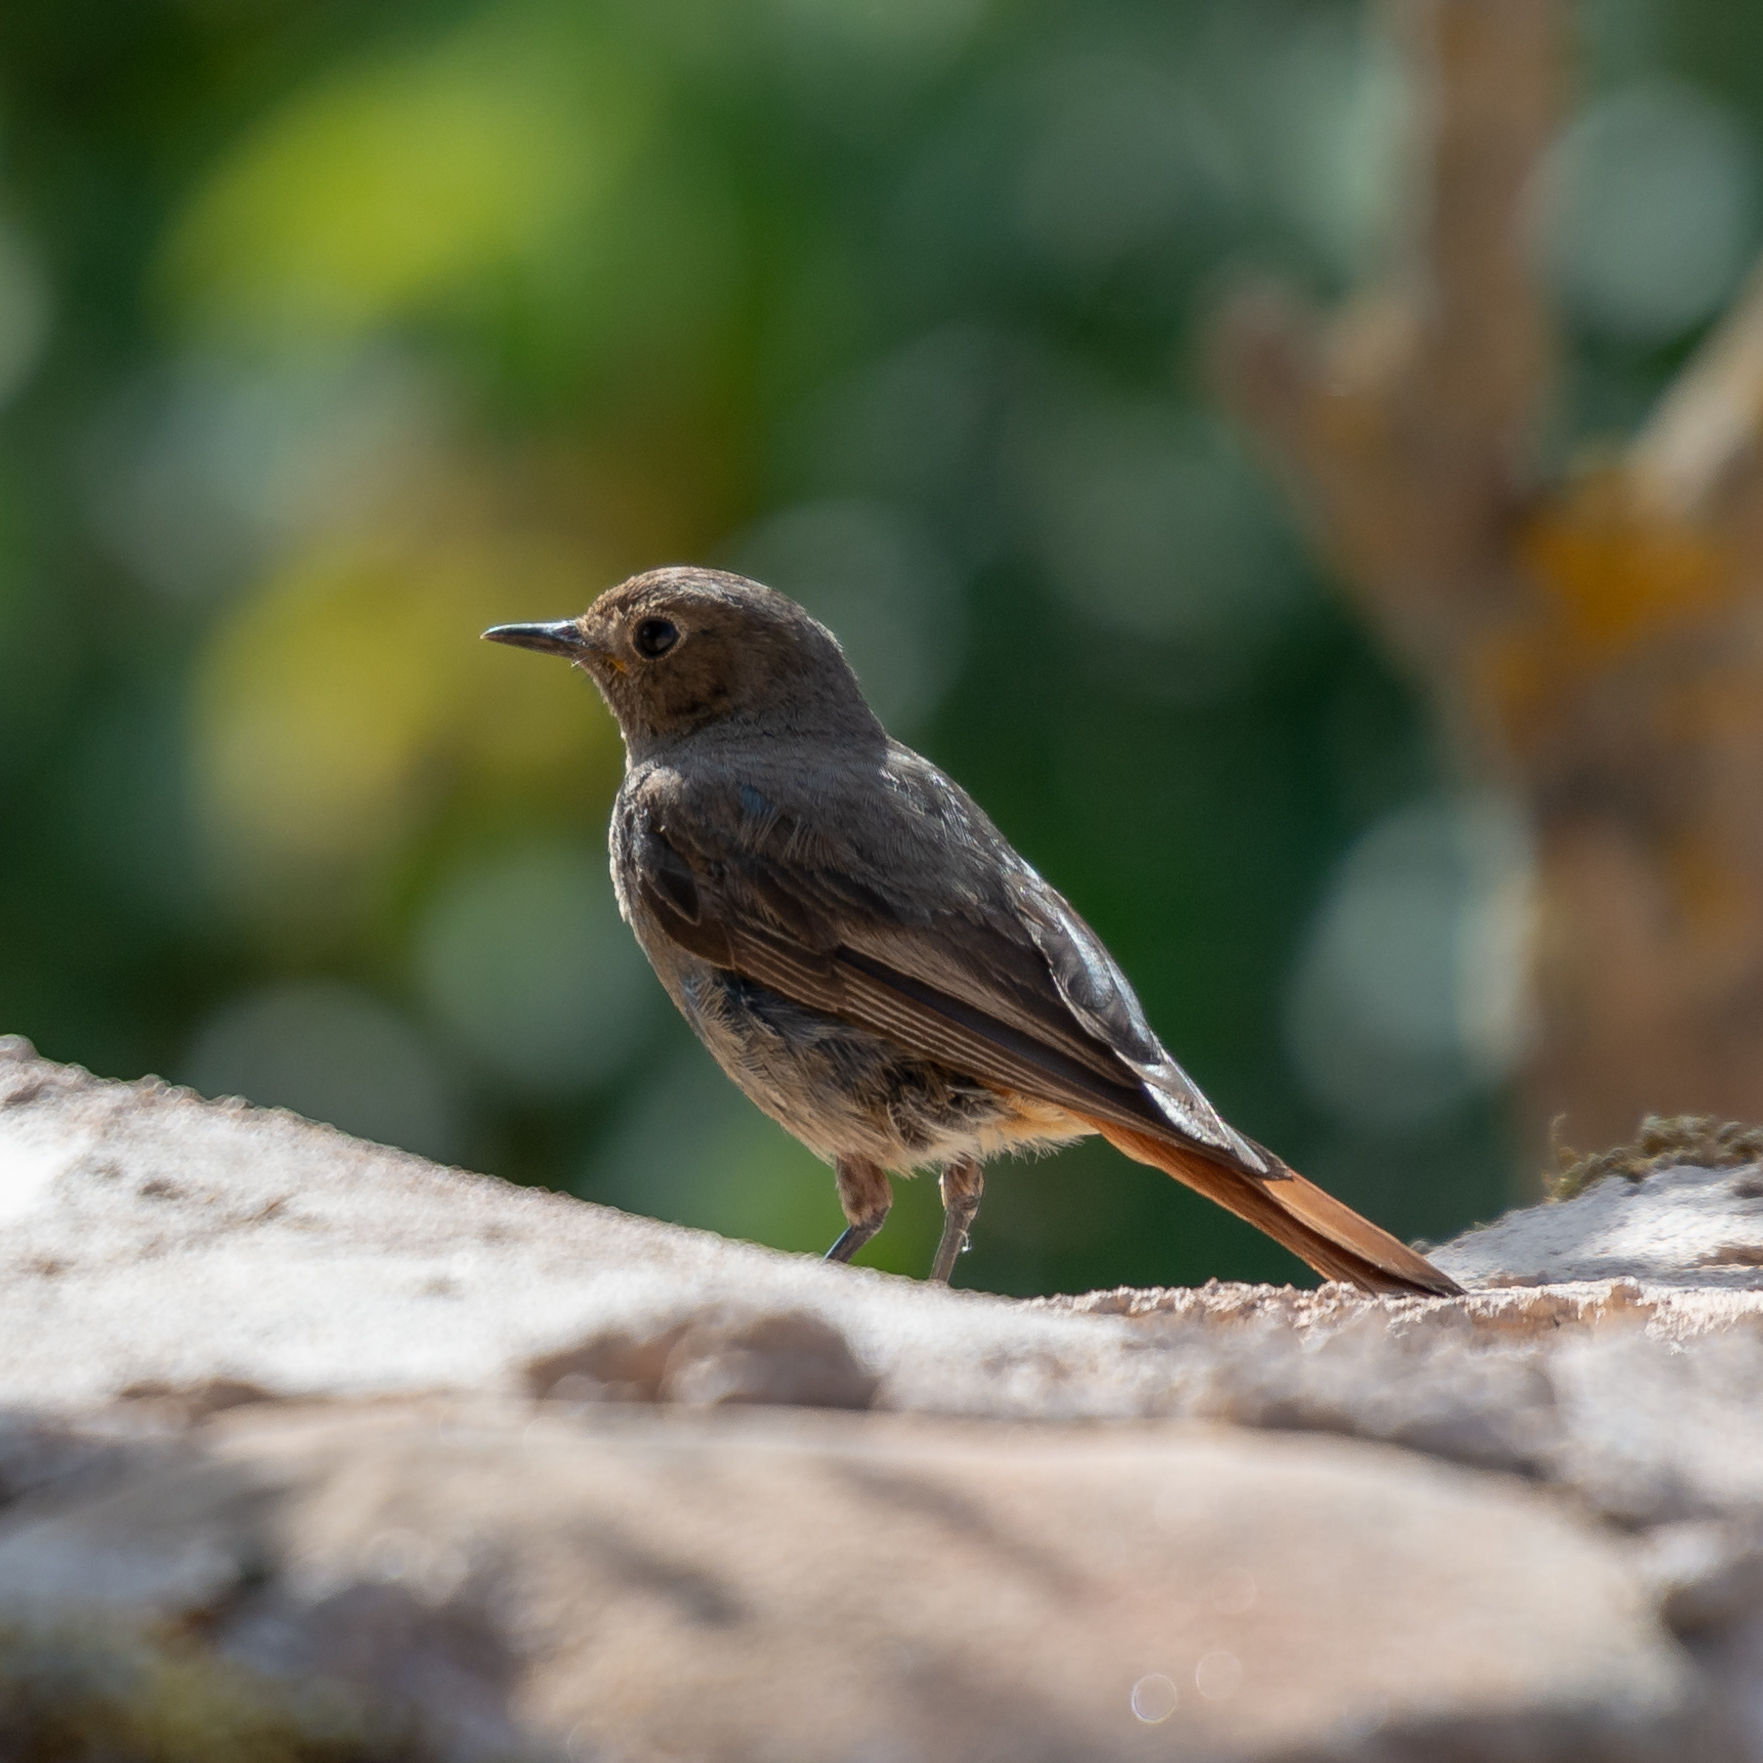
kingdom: Animalia
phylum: Chordata
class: Aves
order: Passeriformes
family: Muscicapidae
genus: Phoenicurus
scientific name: Phoenicurus ochruros
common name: Black redstart
